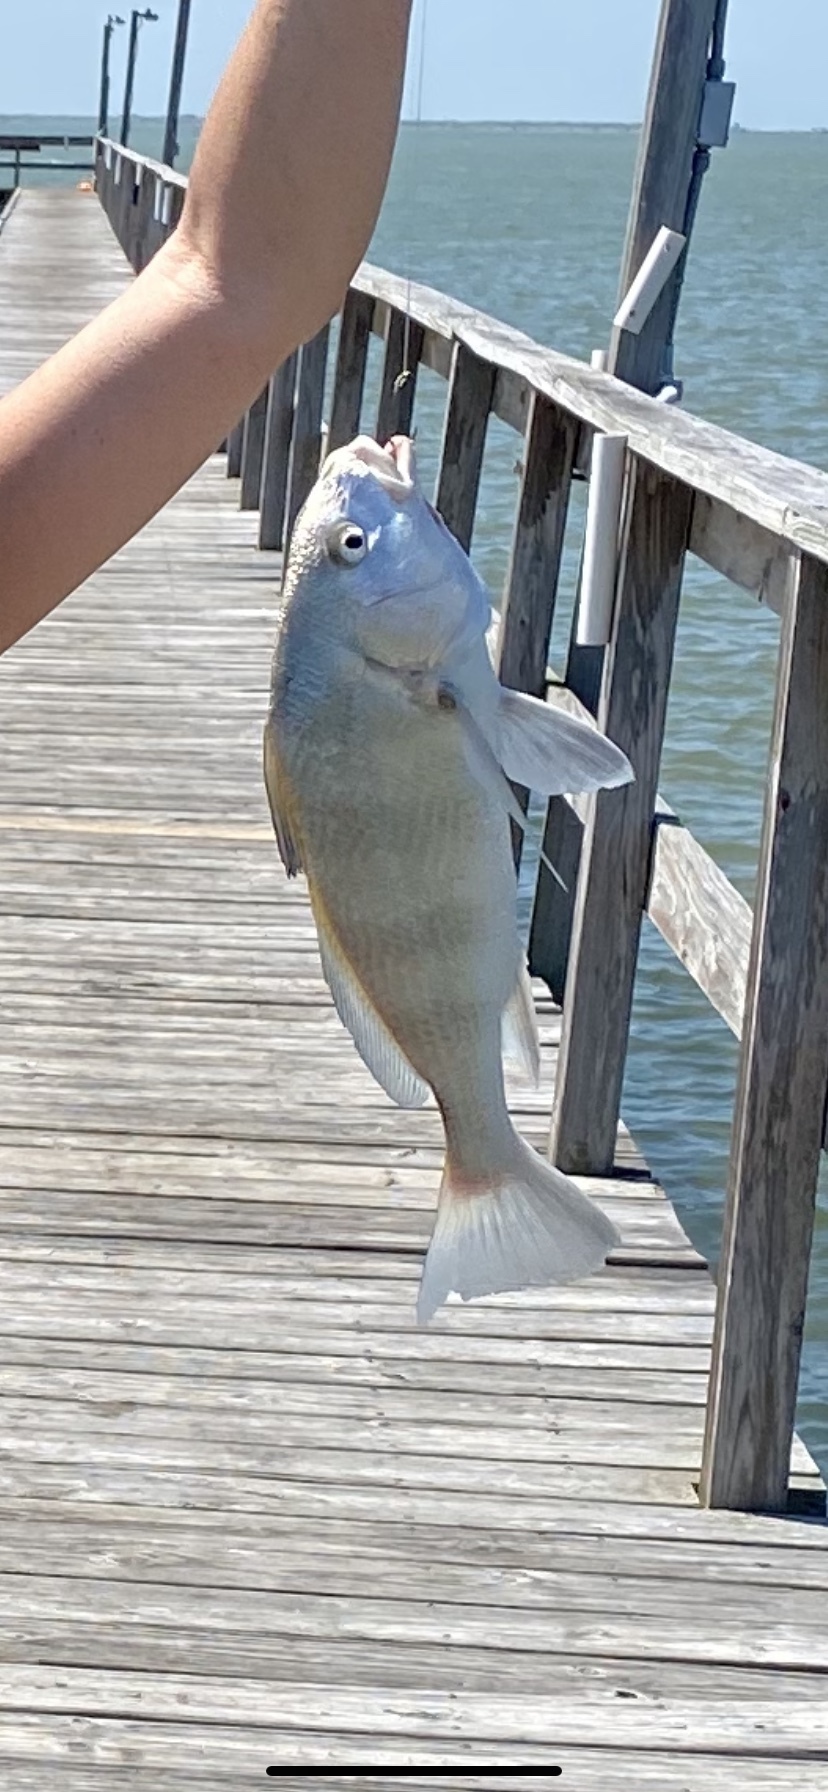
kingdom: Animalia
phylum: Chordata
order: Perciformes
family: Sciaenidae
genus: Pogonias
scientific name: Pogonias cromis
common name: Black drum
